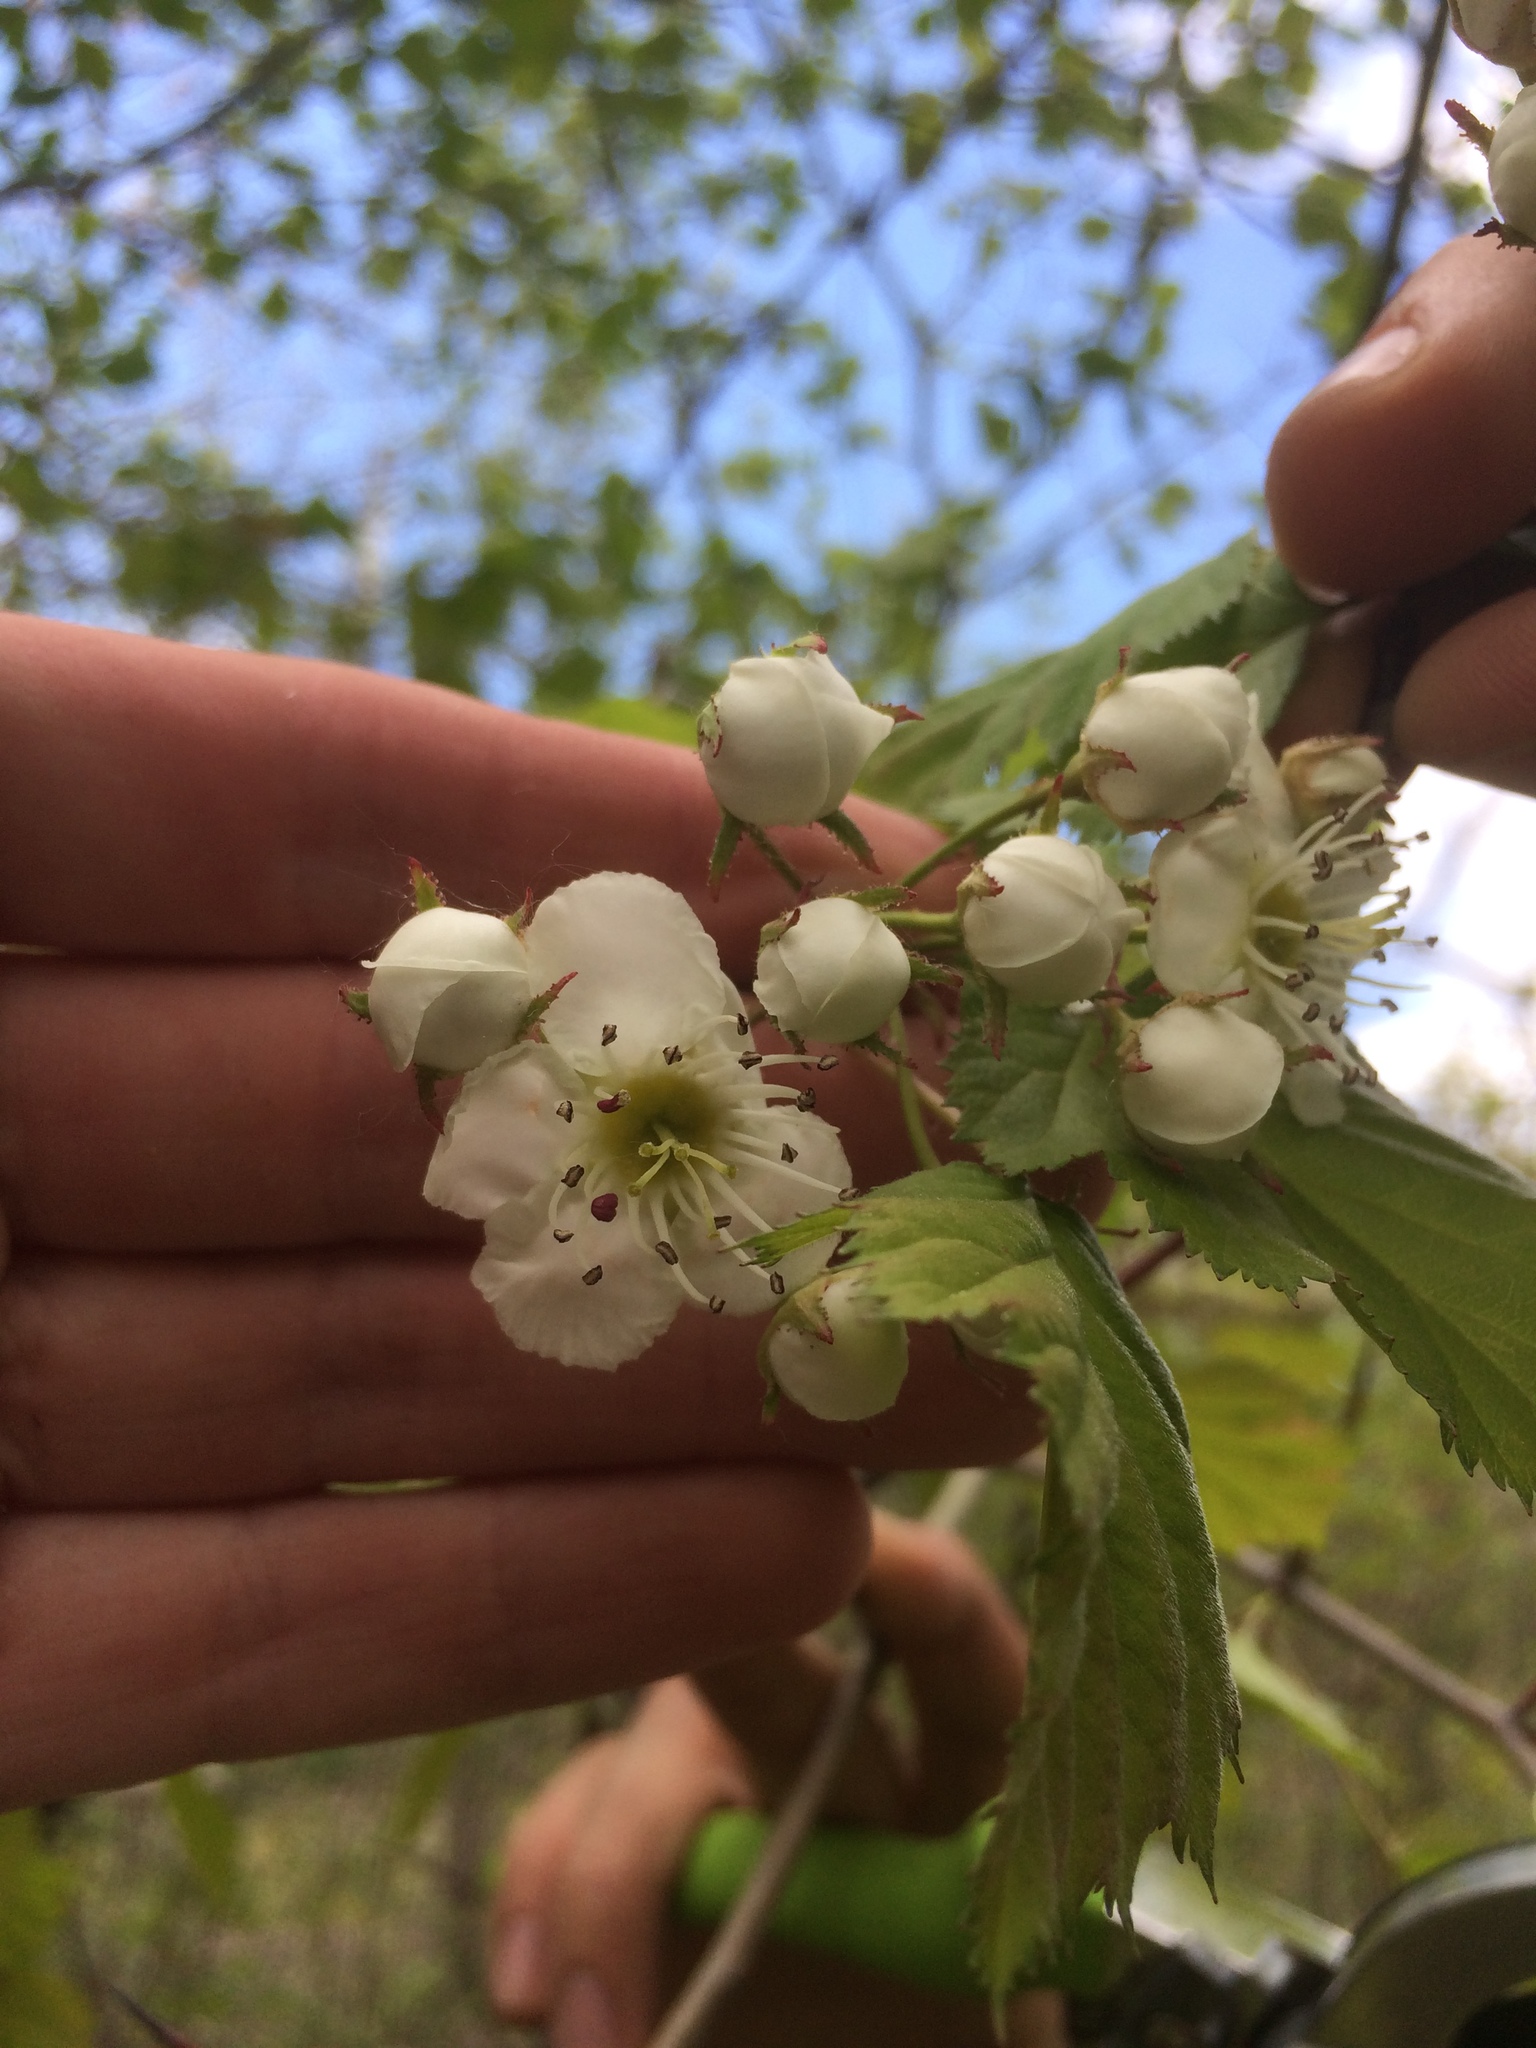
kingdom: Plantae
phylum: Tracheophyta
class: Magnoliopsida
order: Rosales
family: Rosaceae
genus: Crataegus
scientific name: Crataegus coccinioides
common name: Large-flowered cockspurthorn
